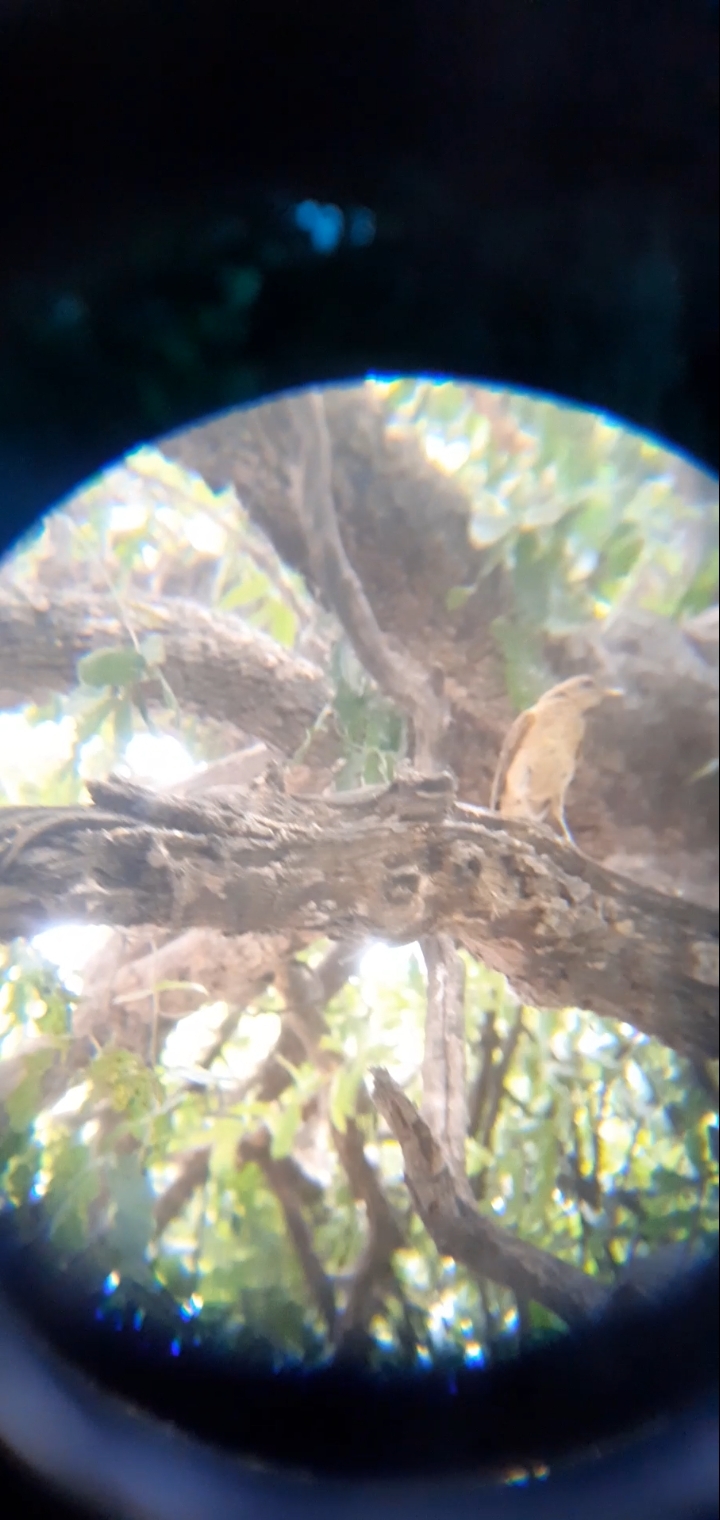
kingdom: Animalia
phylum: Chordata
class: Aves
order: Passeriformes
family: Turdidae
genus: Turdus
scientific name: Turdus grayi
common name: Clay-colored thrush
